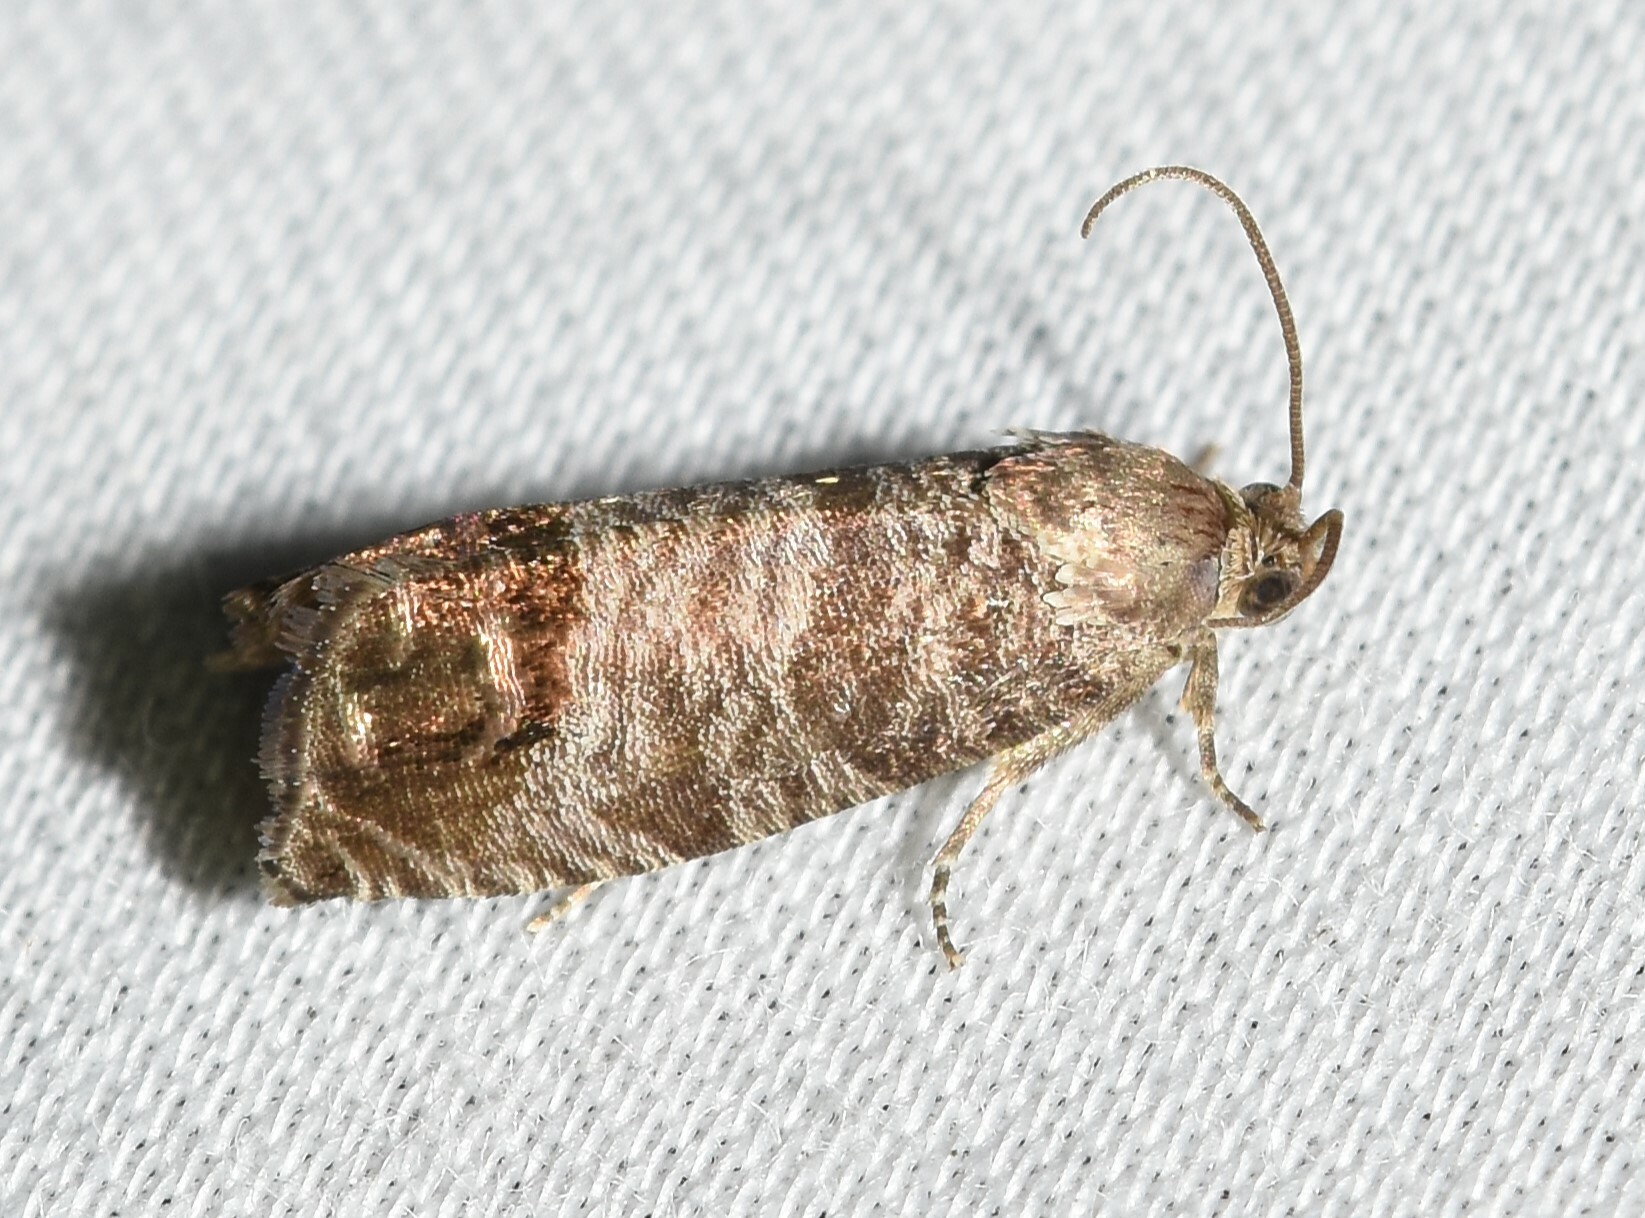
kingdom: Animalia
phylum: Arthropoda
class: Insecta
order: Lepidoptera
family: Tortricidae
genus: Cydia
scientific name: Cydia pomonella
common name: Codling moth
